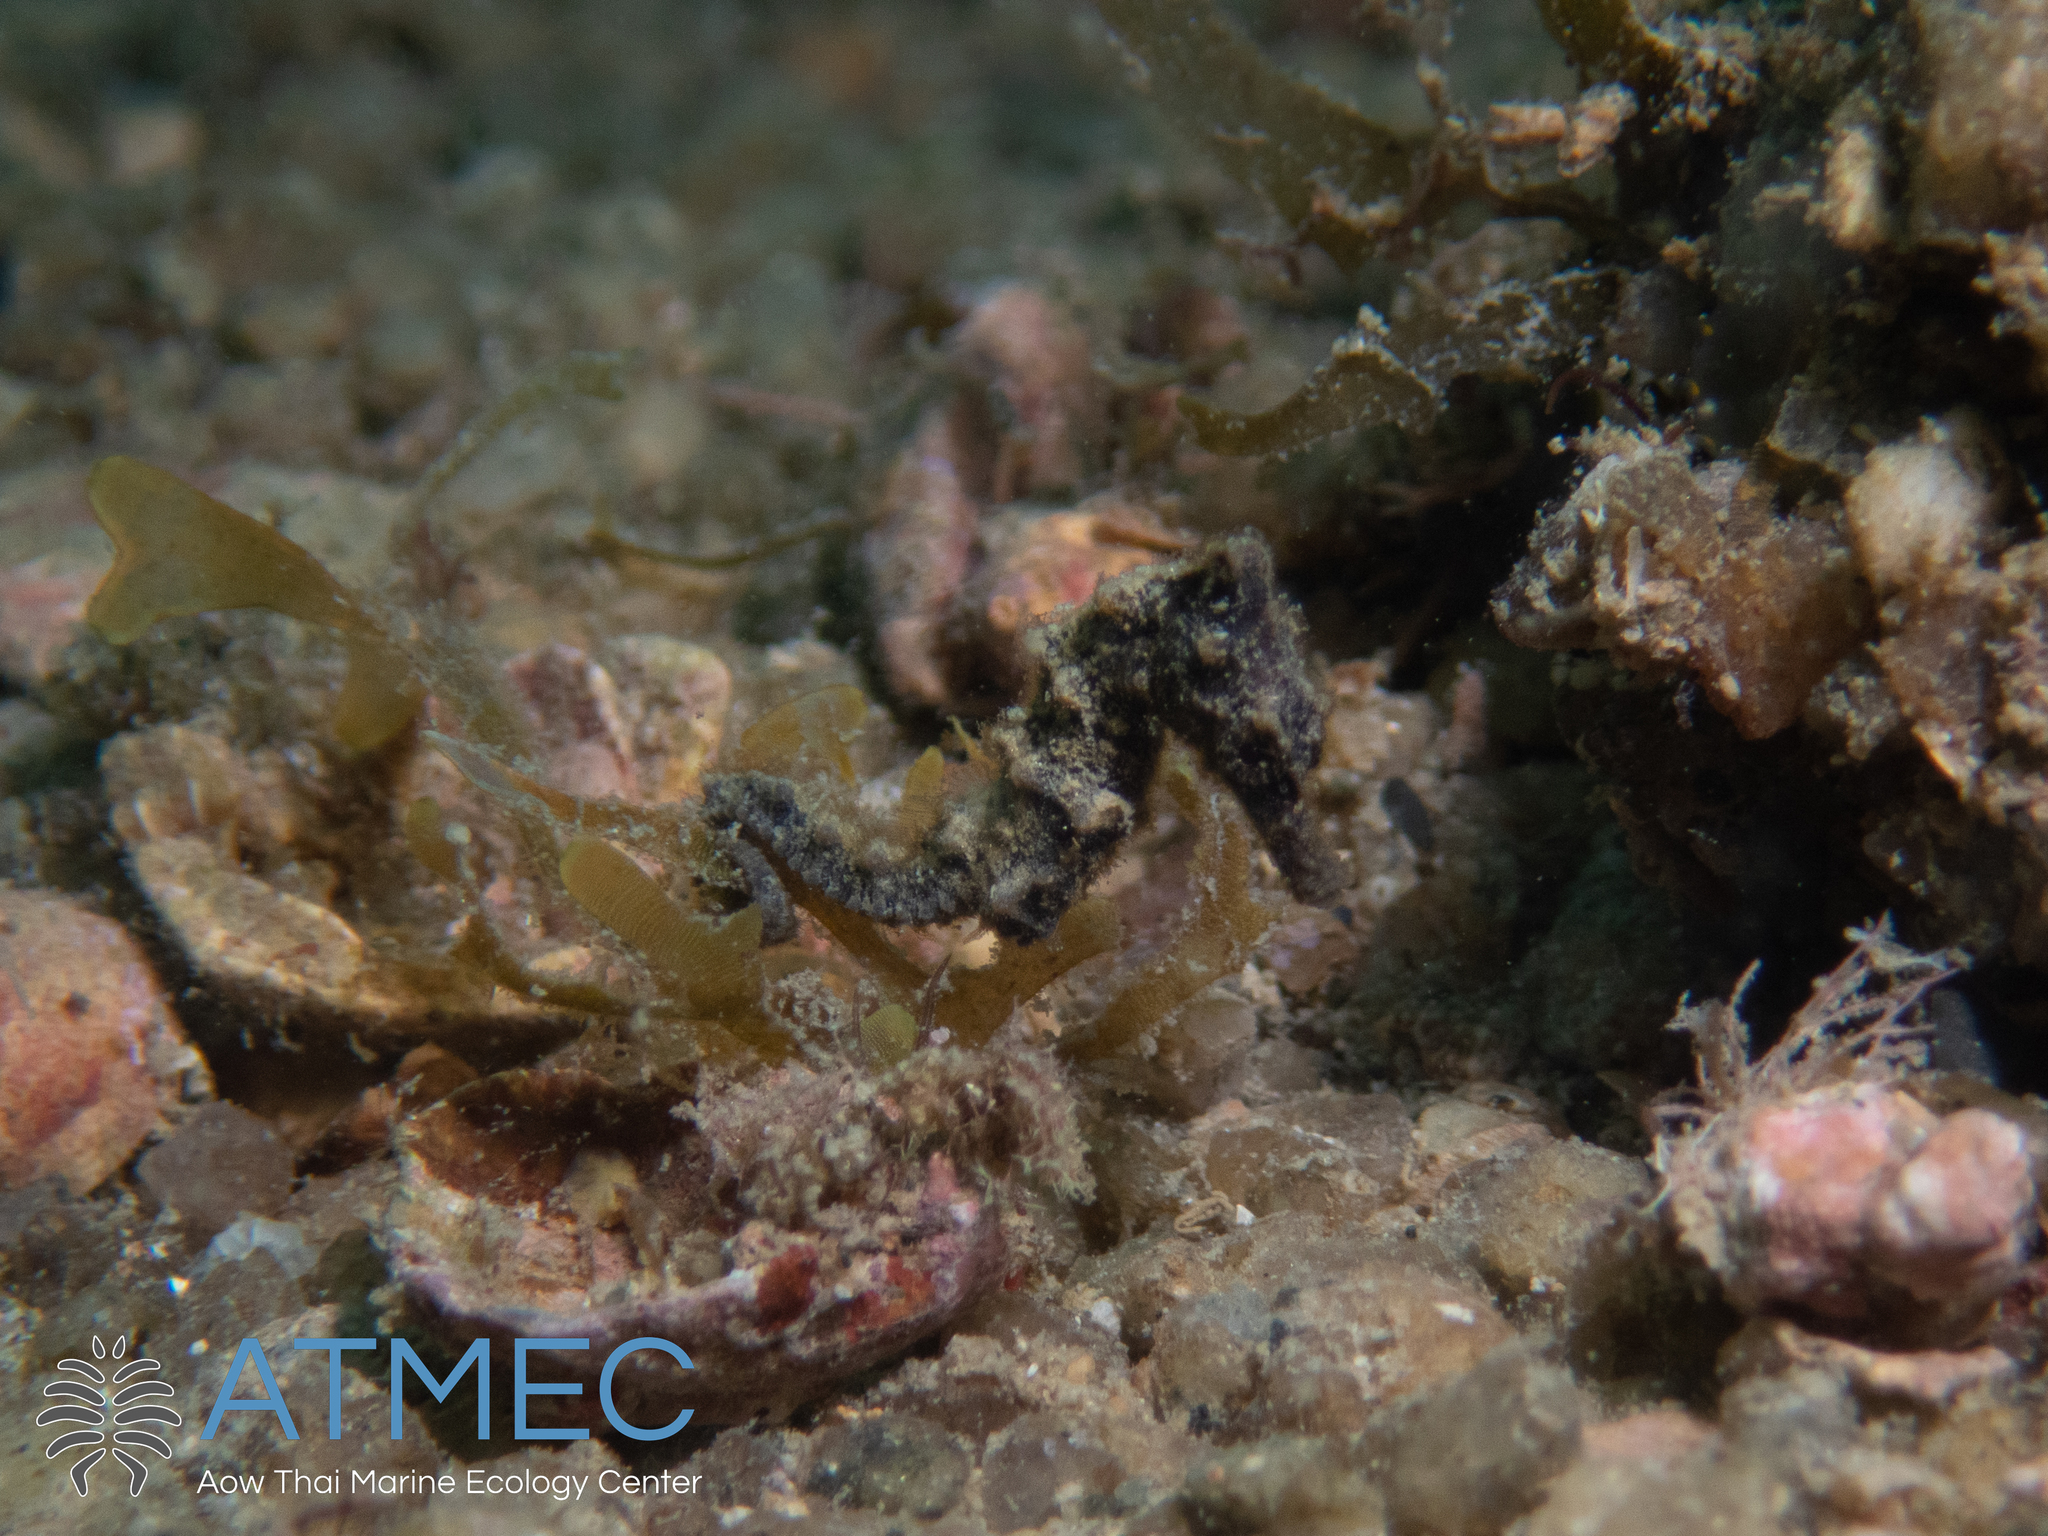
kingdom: Animalia
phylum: Chordata
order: Syngnathiformes
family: Syngnathidae
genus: Hippocampus
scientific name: Hippocampus kuda
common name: Spotted seahorse
